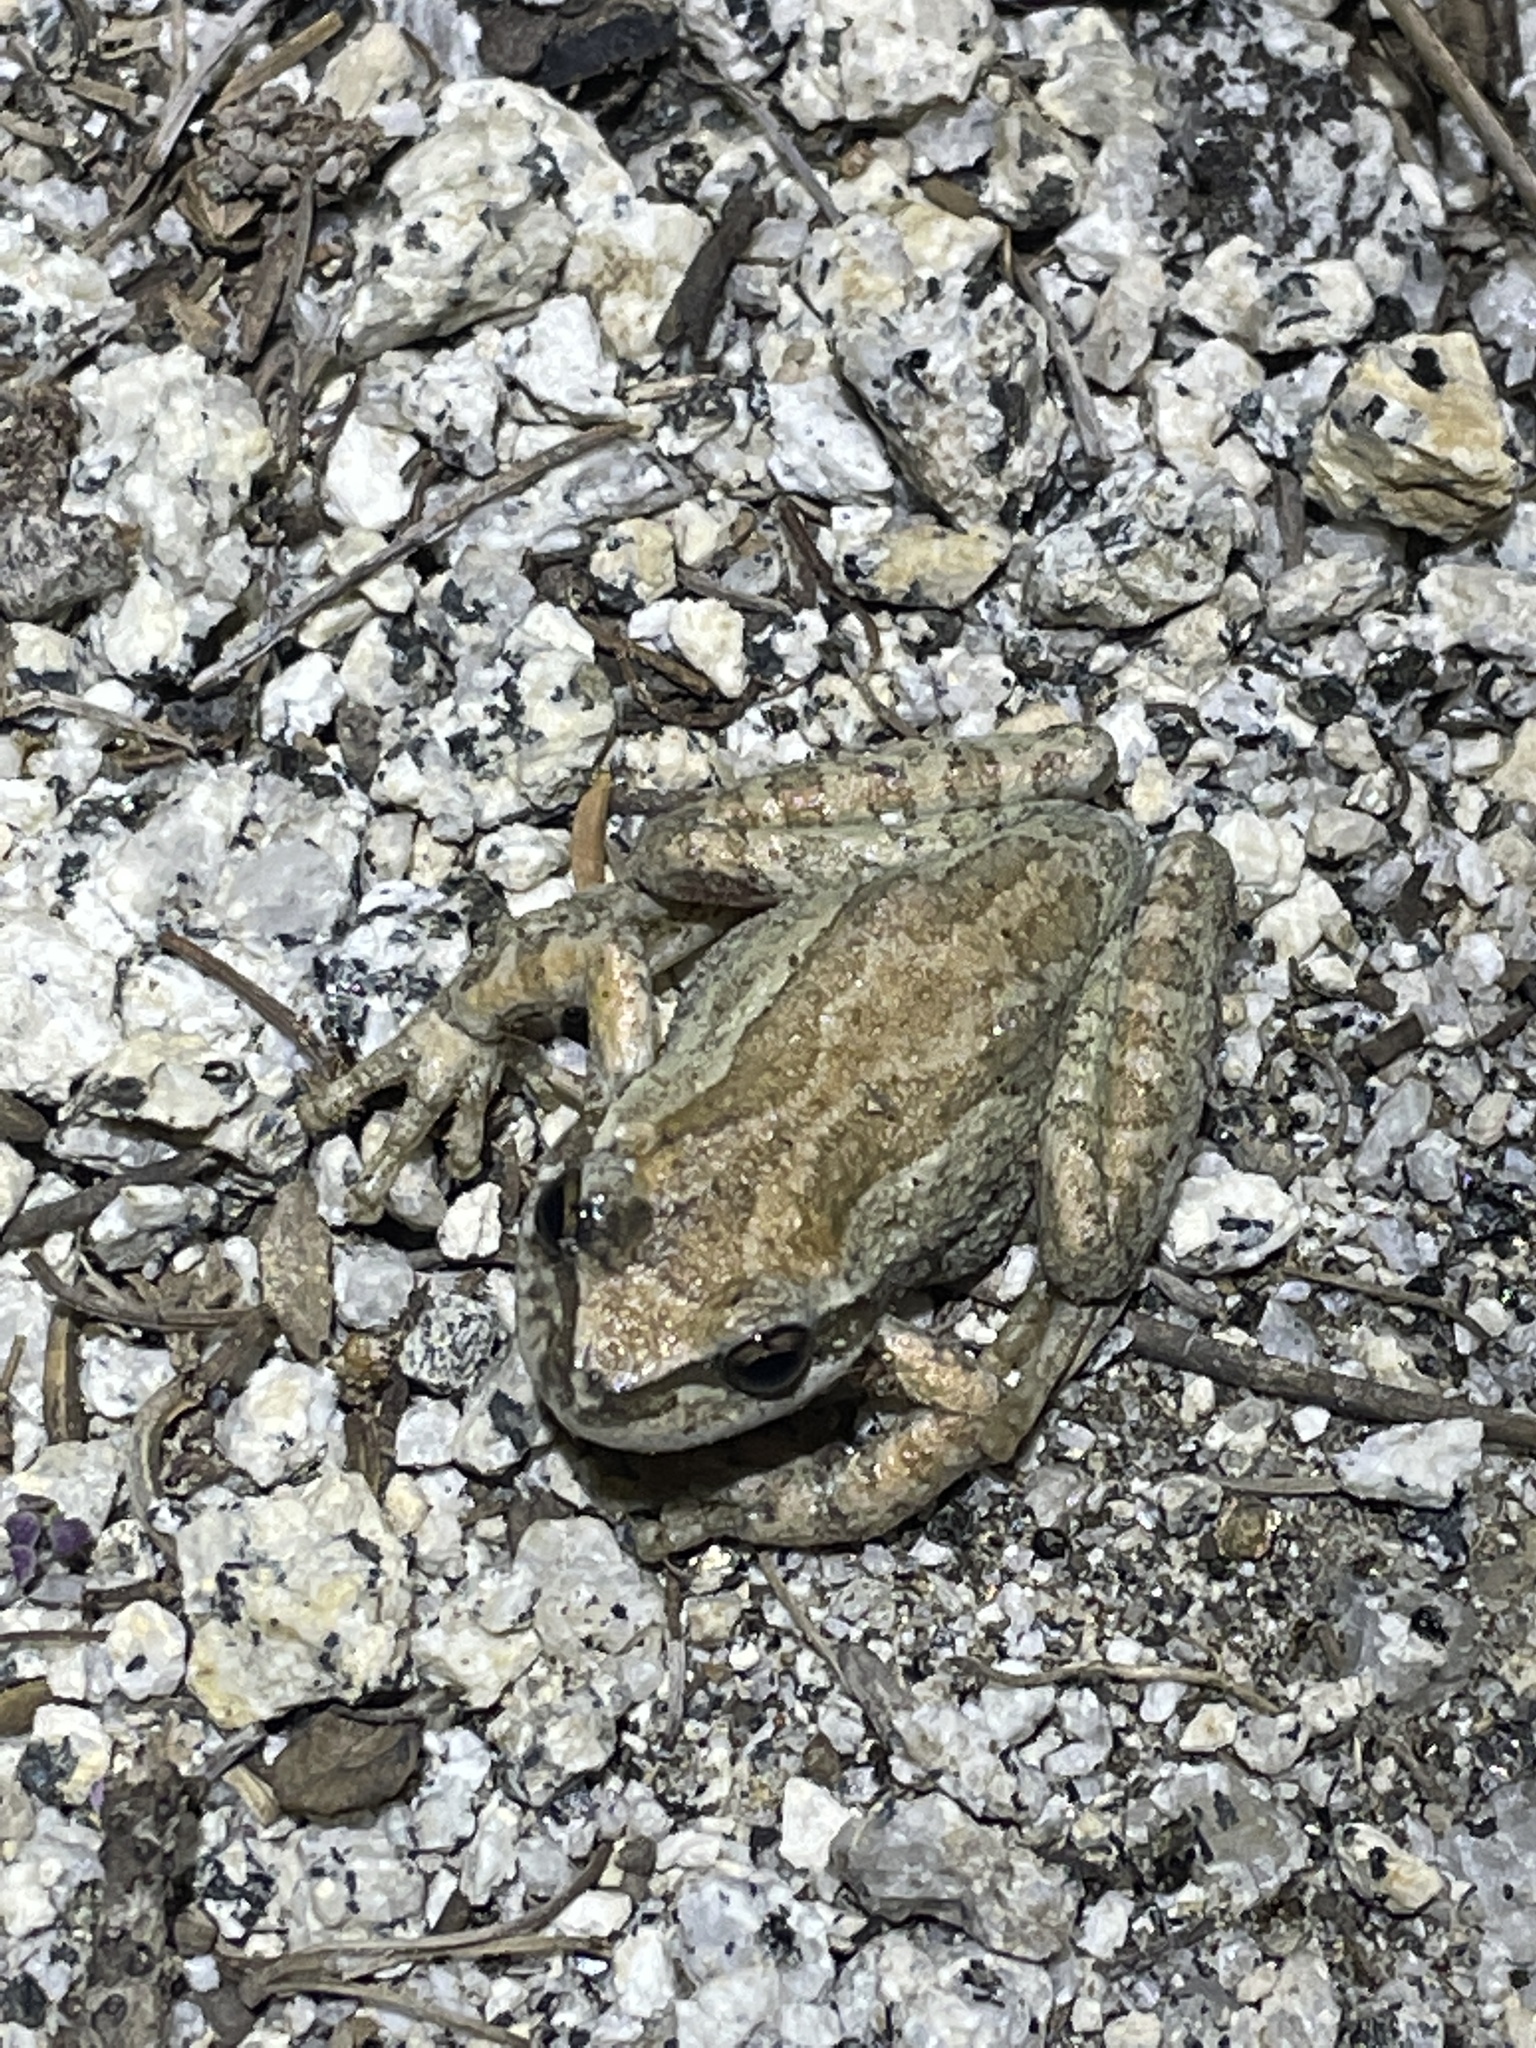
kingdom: Animalia
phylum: Chordata
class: Amphibia
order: Anura
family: Hylidae
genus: Pseudacris
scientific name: Pseudacris regilla
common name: Pacific chorus frog
